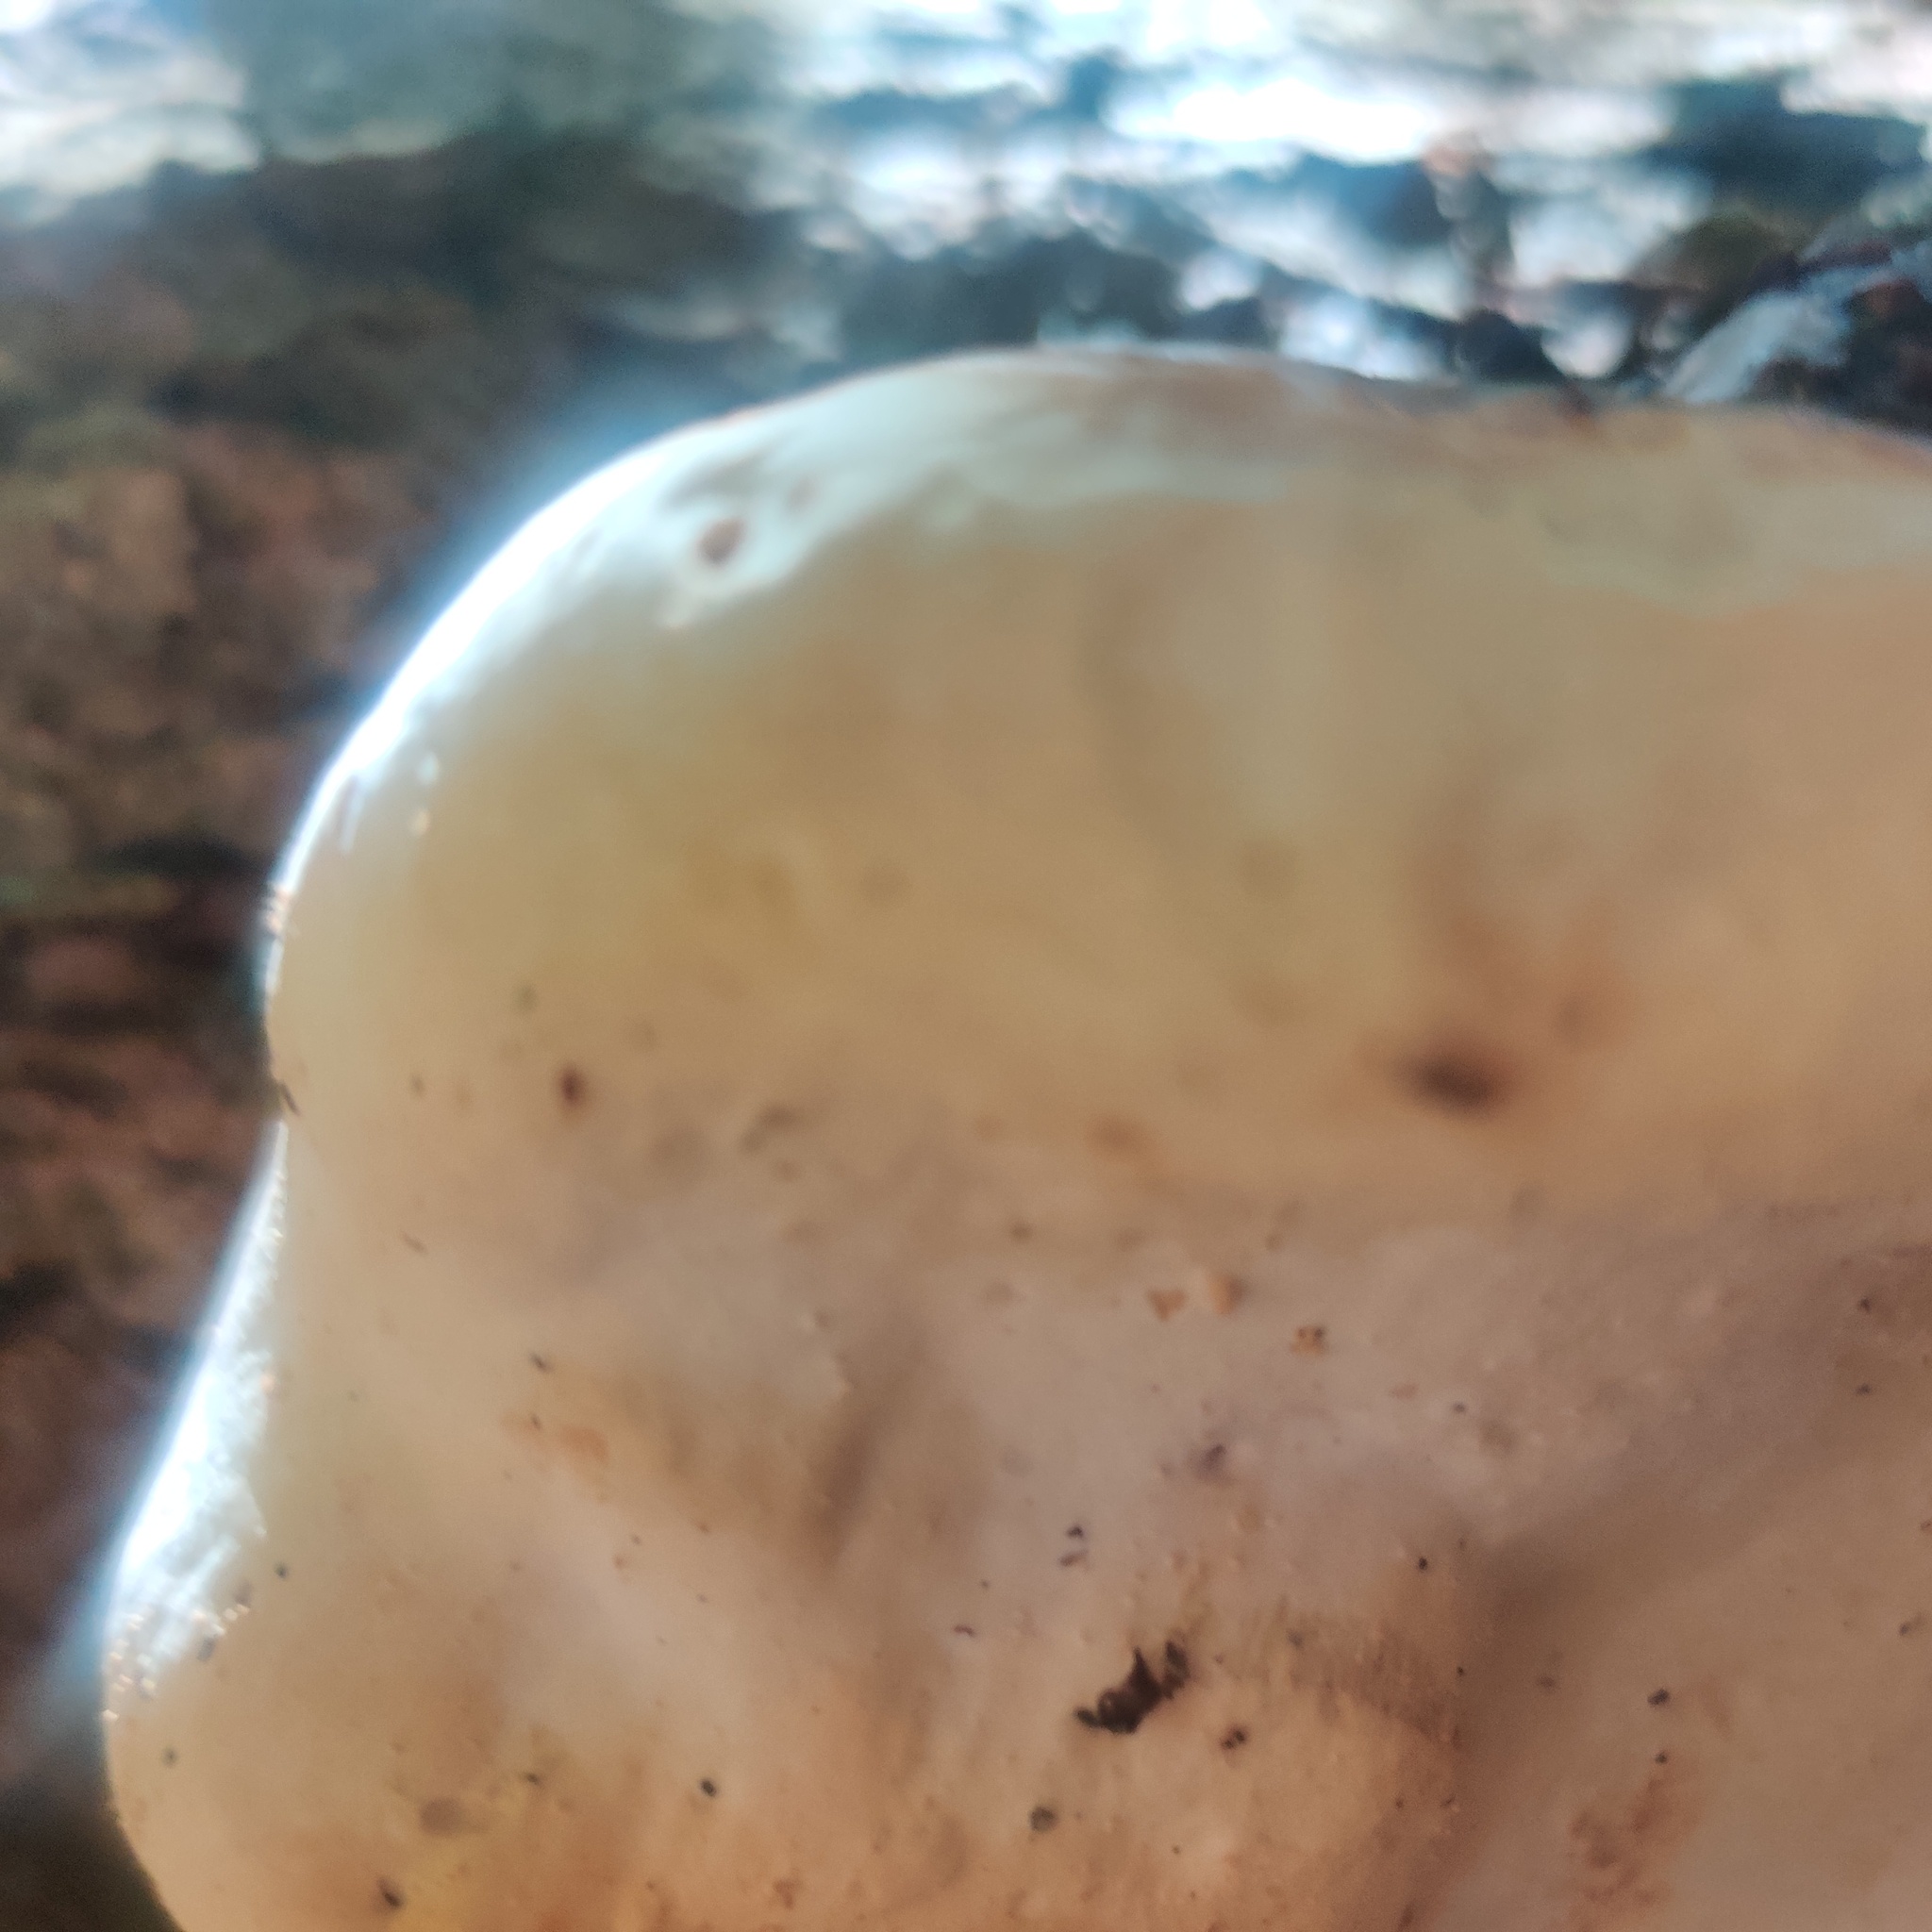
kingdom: Fungi
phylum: Basidiomycota
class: Agaricomycetes
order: Polyporales
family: Fomitopsidaceae
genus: Fomitopsis
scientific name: Fomitopsis mounceae
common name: Northern red belt
